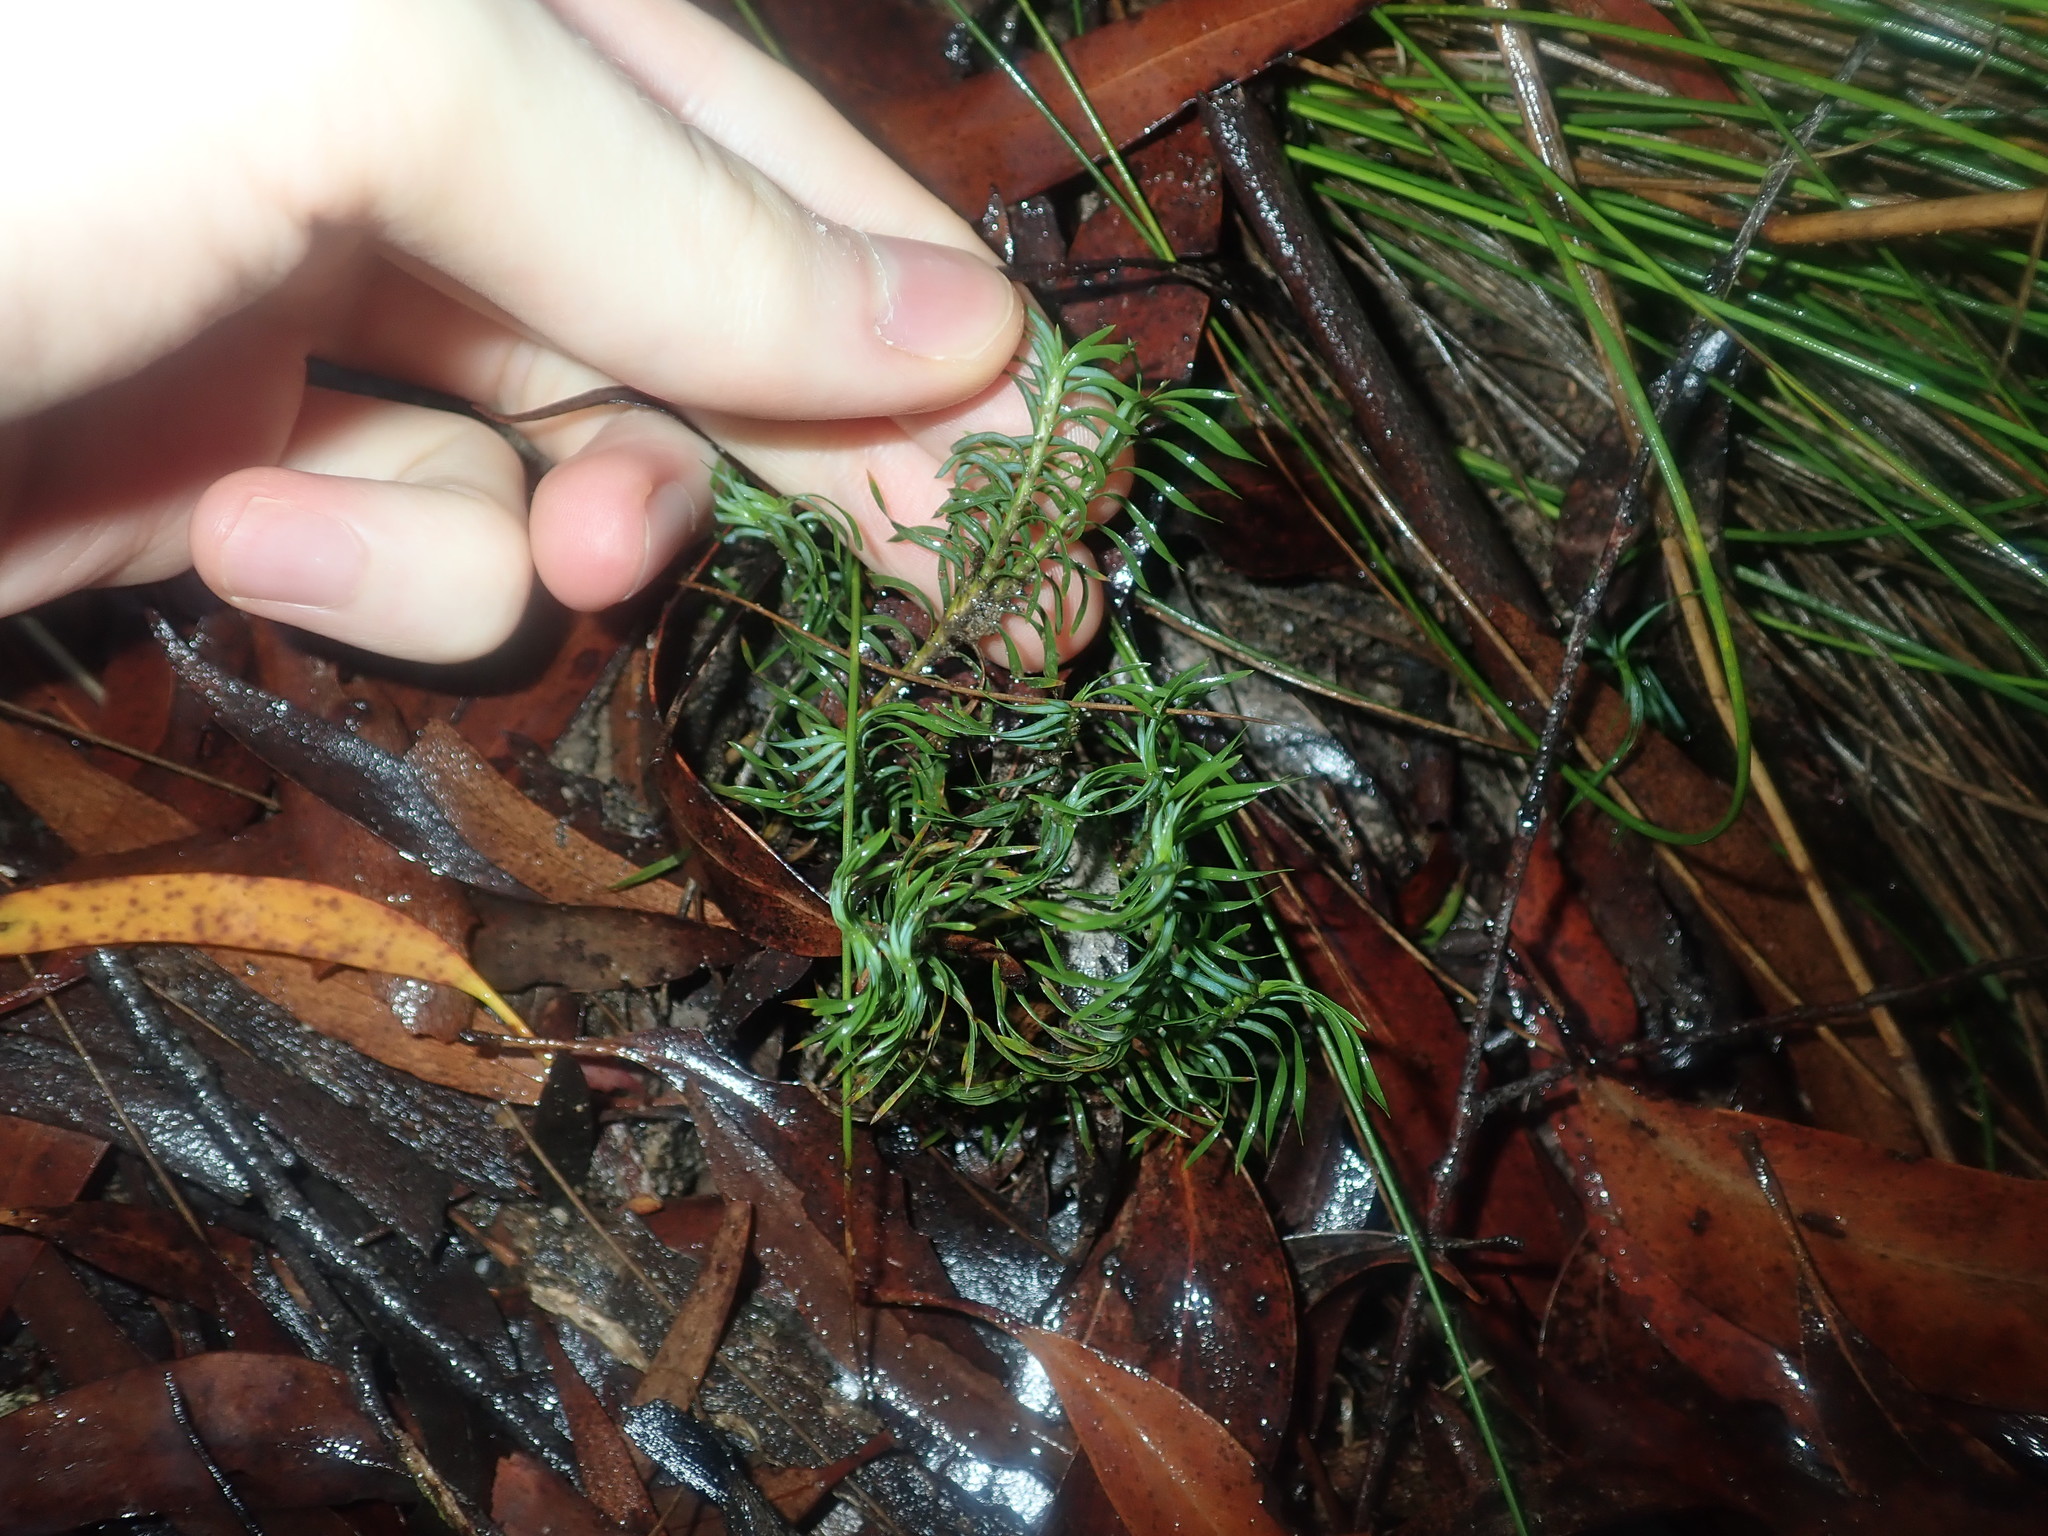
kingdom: Plantae
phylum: Tracheophyta
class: Liliopsida
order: Asparagales
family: Asparagaceae
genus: Lomandra
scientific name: Lomandra obliqua
